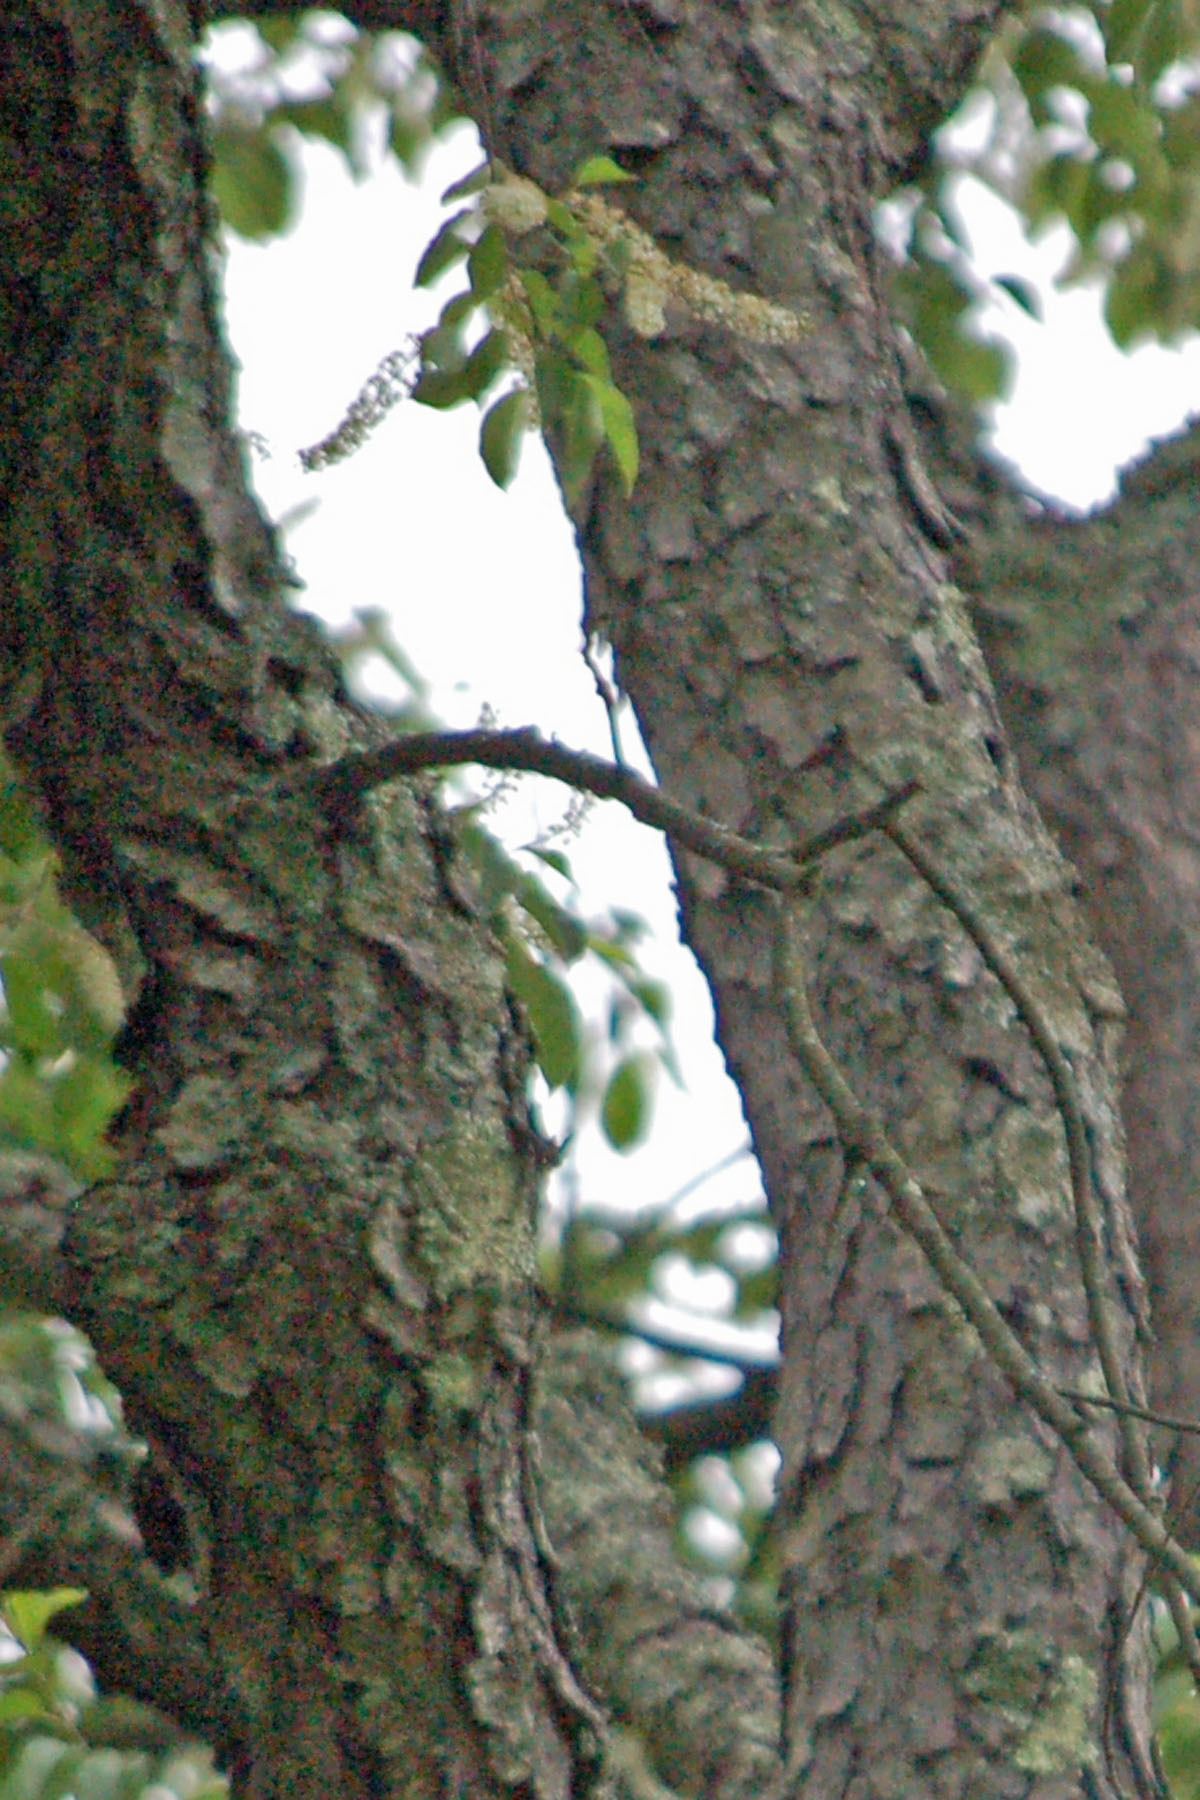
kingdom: Plantae
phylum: Tracheophyta
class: Magnoliopsida
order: Rosales
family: Rosaceae
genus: Prunus
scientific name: Prunus serotina
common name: Black cherry
